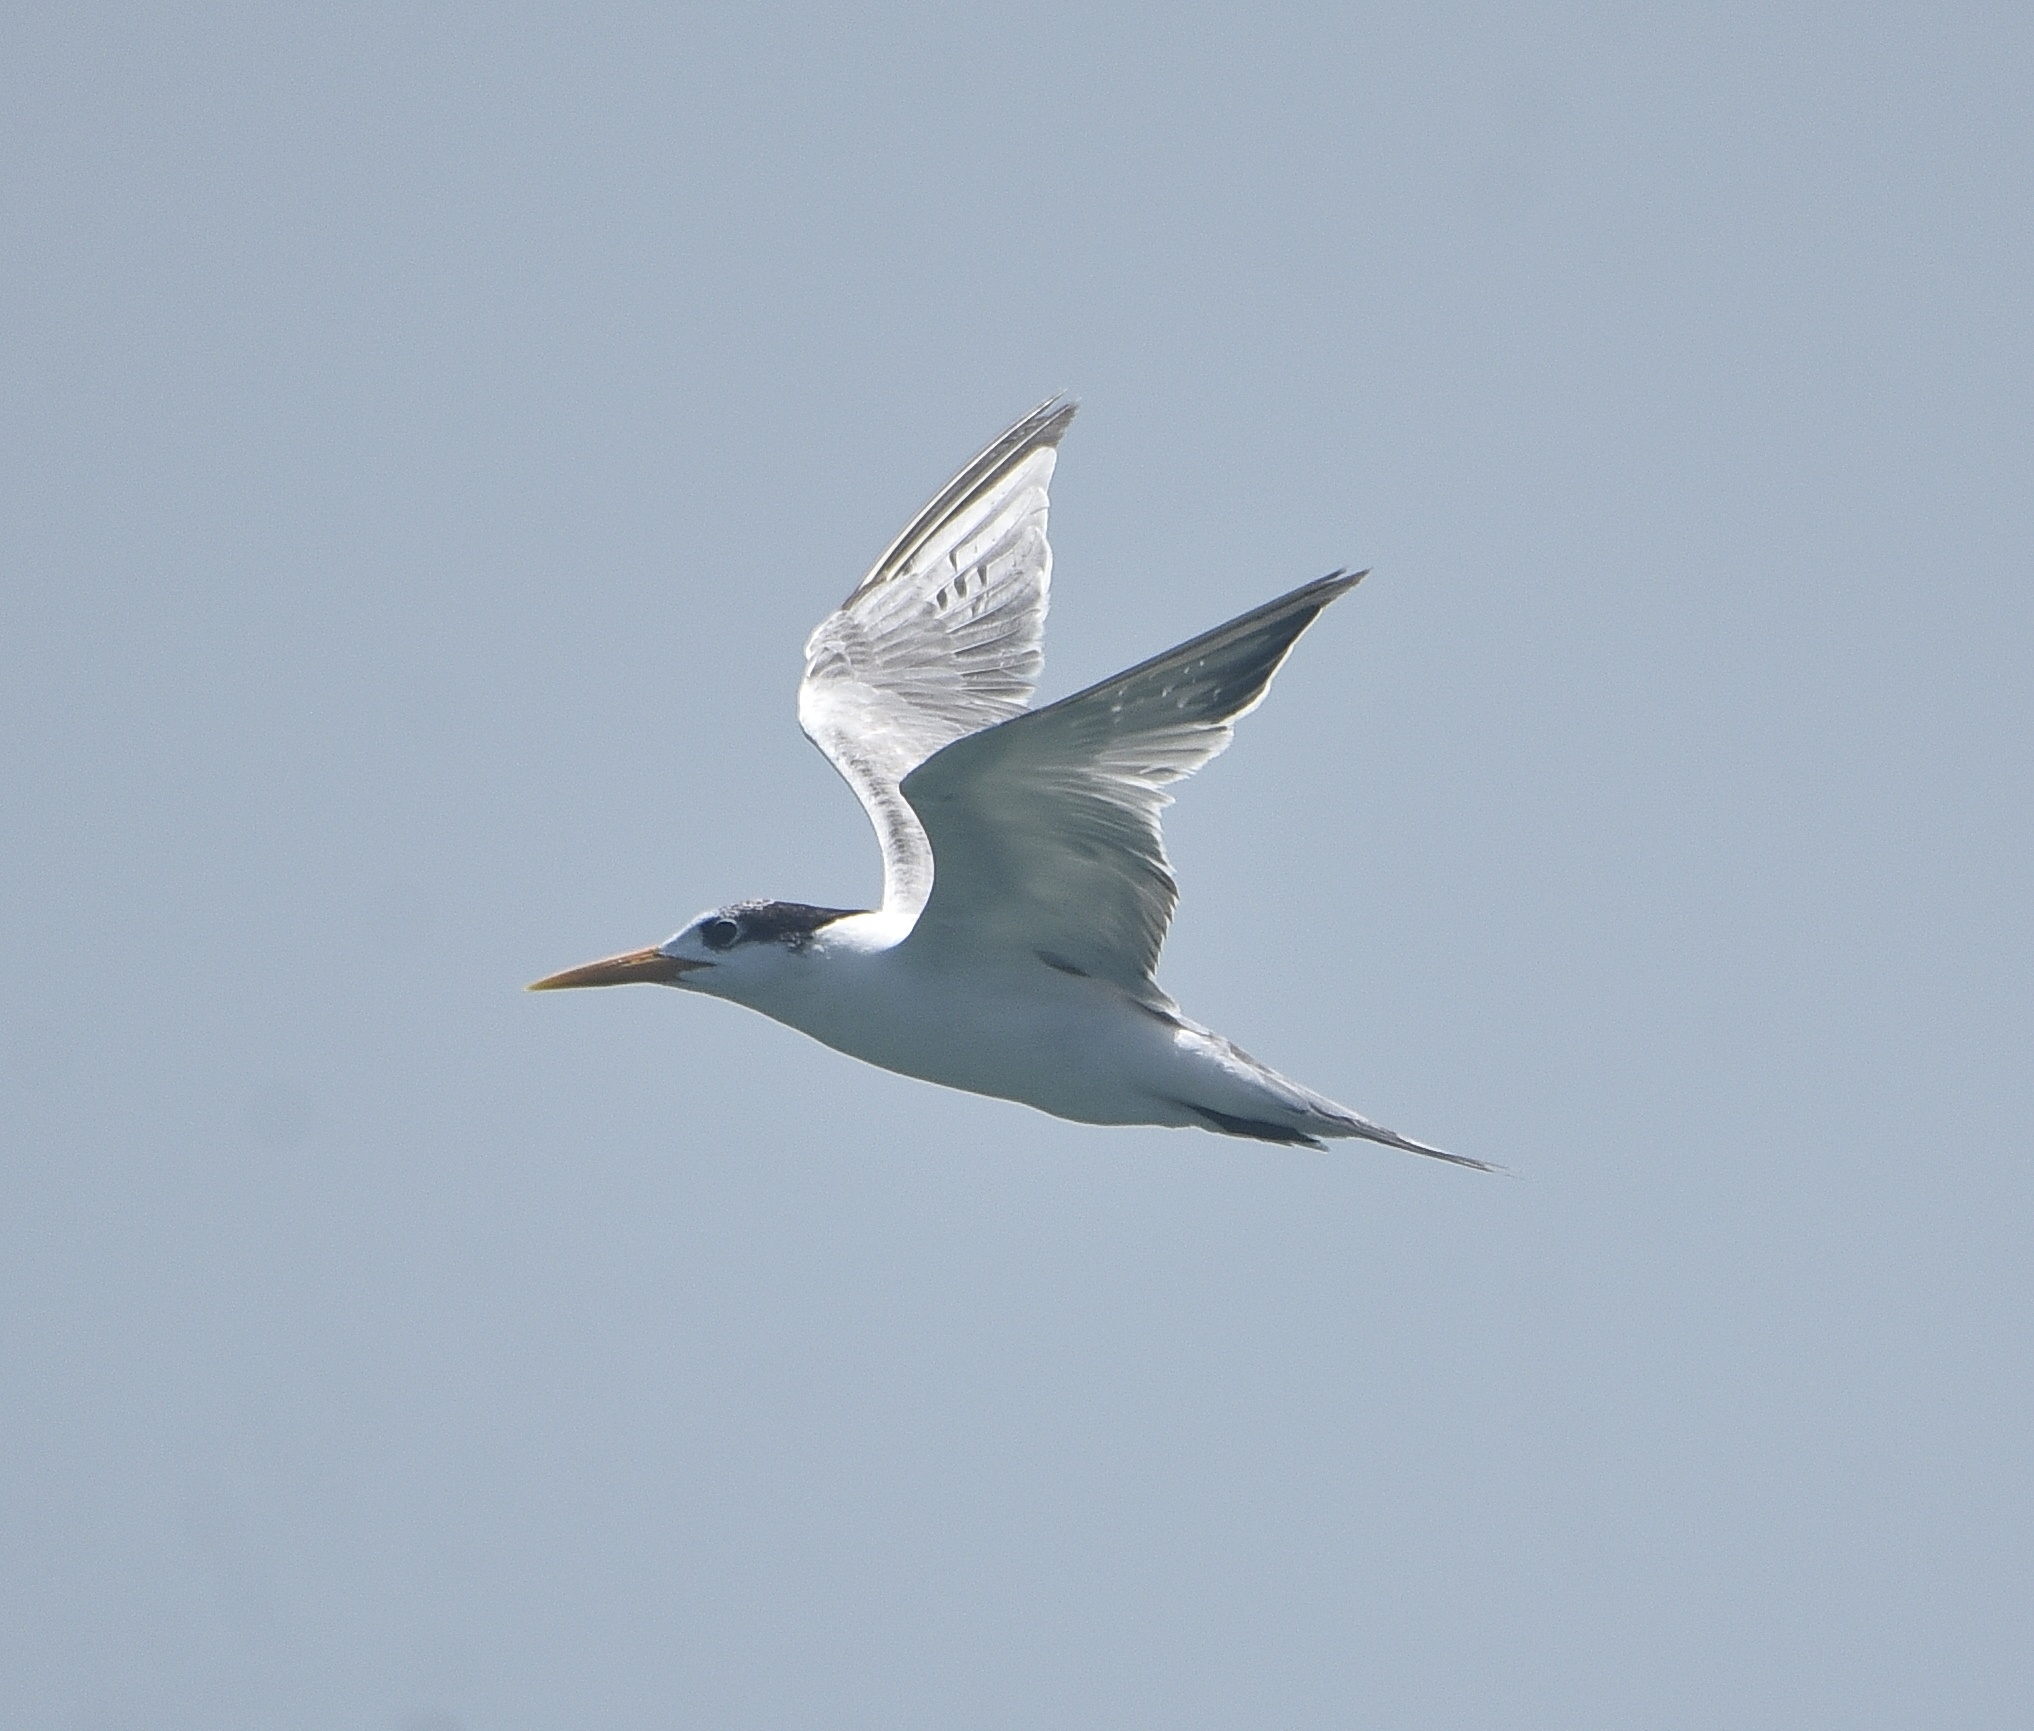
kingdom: Animalia
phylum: Chordata
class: Aves
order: Charadriiformes
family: Laridae
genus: Thalasseus
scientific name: Thalasseus bergii
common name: Greater crested tern
